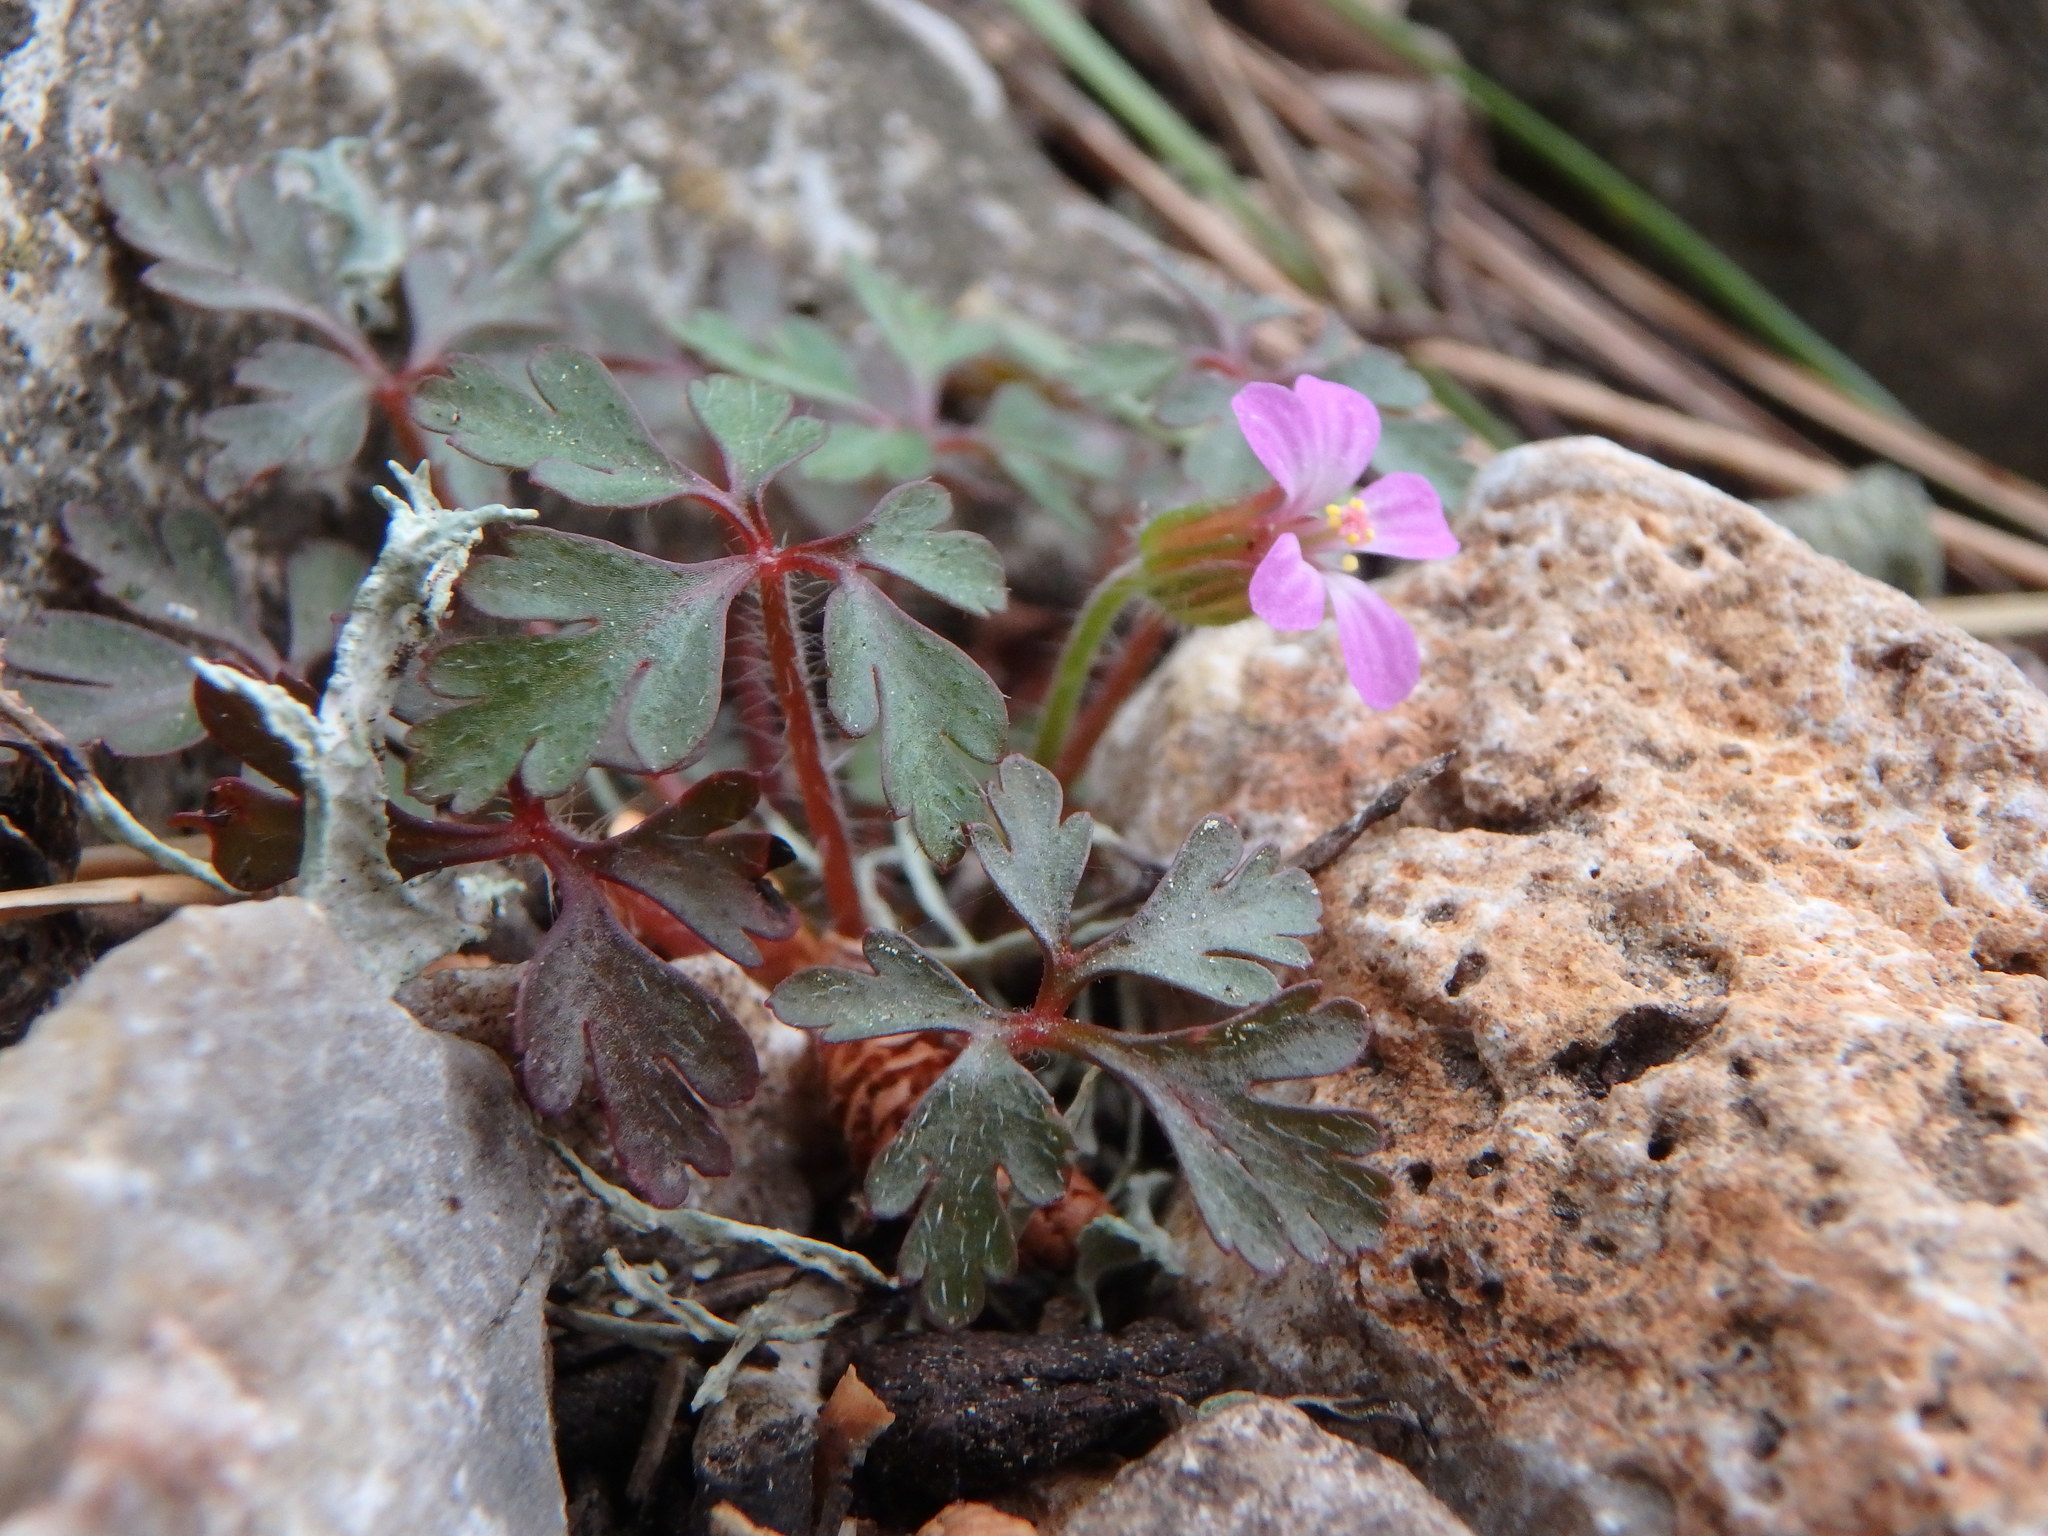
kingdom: Plantae
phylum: Tracheophyta
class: Magnoliopsida
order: Geraniales
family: Geraniaceae
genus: Geranium
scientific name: Geranium purpureum
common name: Little-robin
